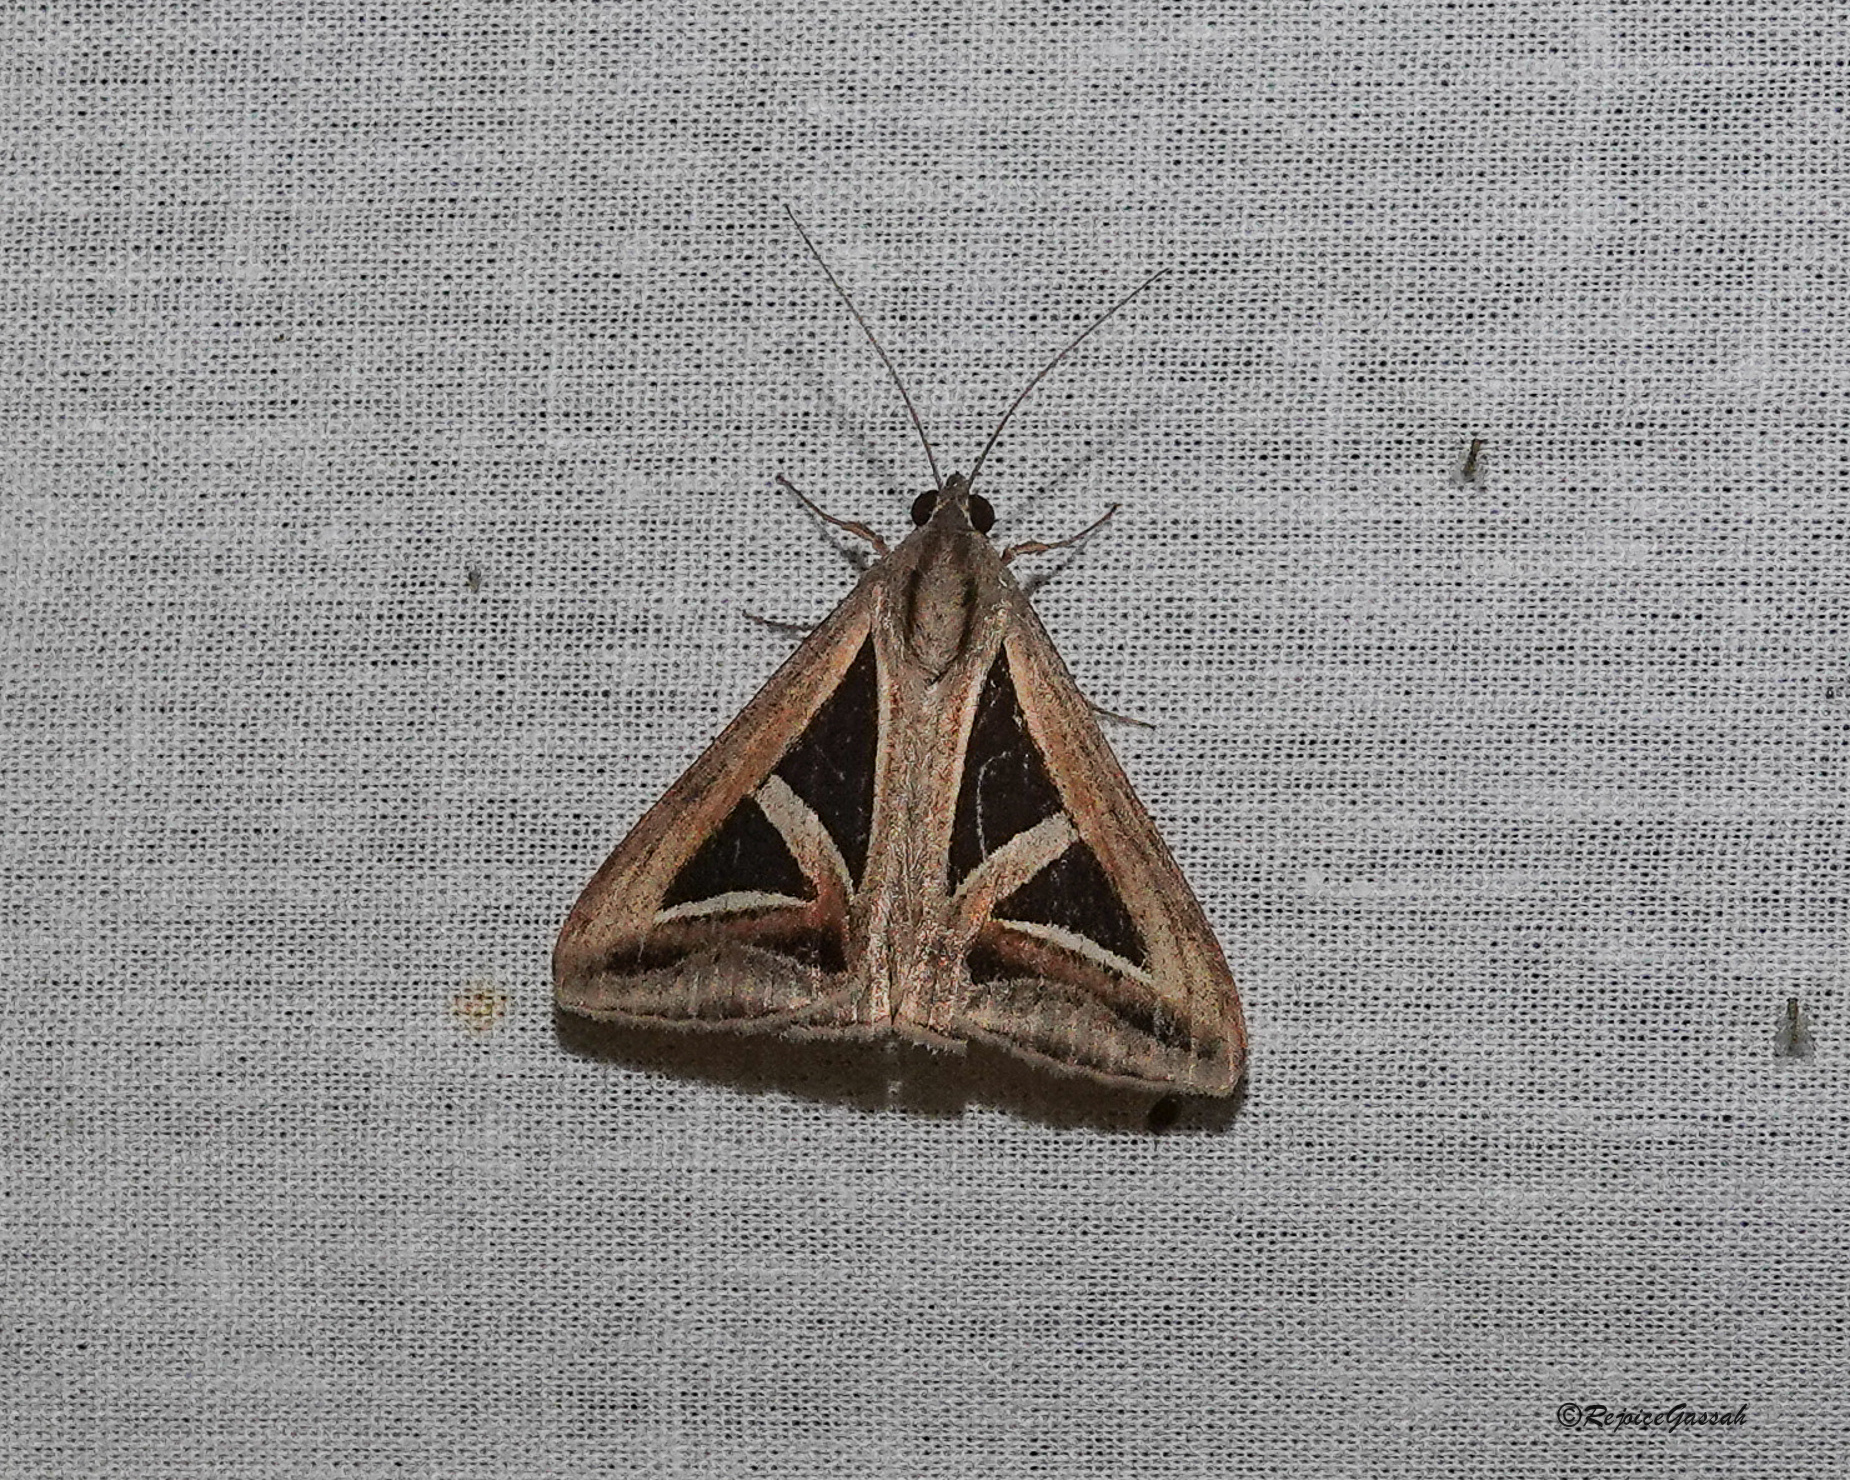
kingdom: Animalia
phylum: Arthropoda
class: Insecta
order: Lepidoptera
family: Erebidae
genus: Trigonodes
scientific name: Trigonodes hyppasia
